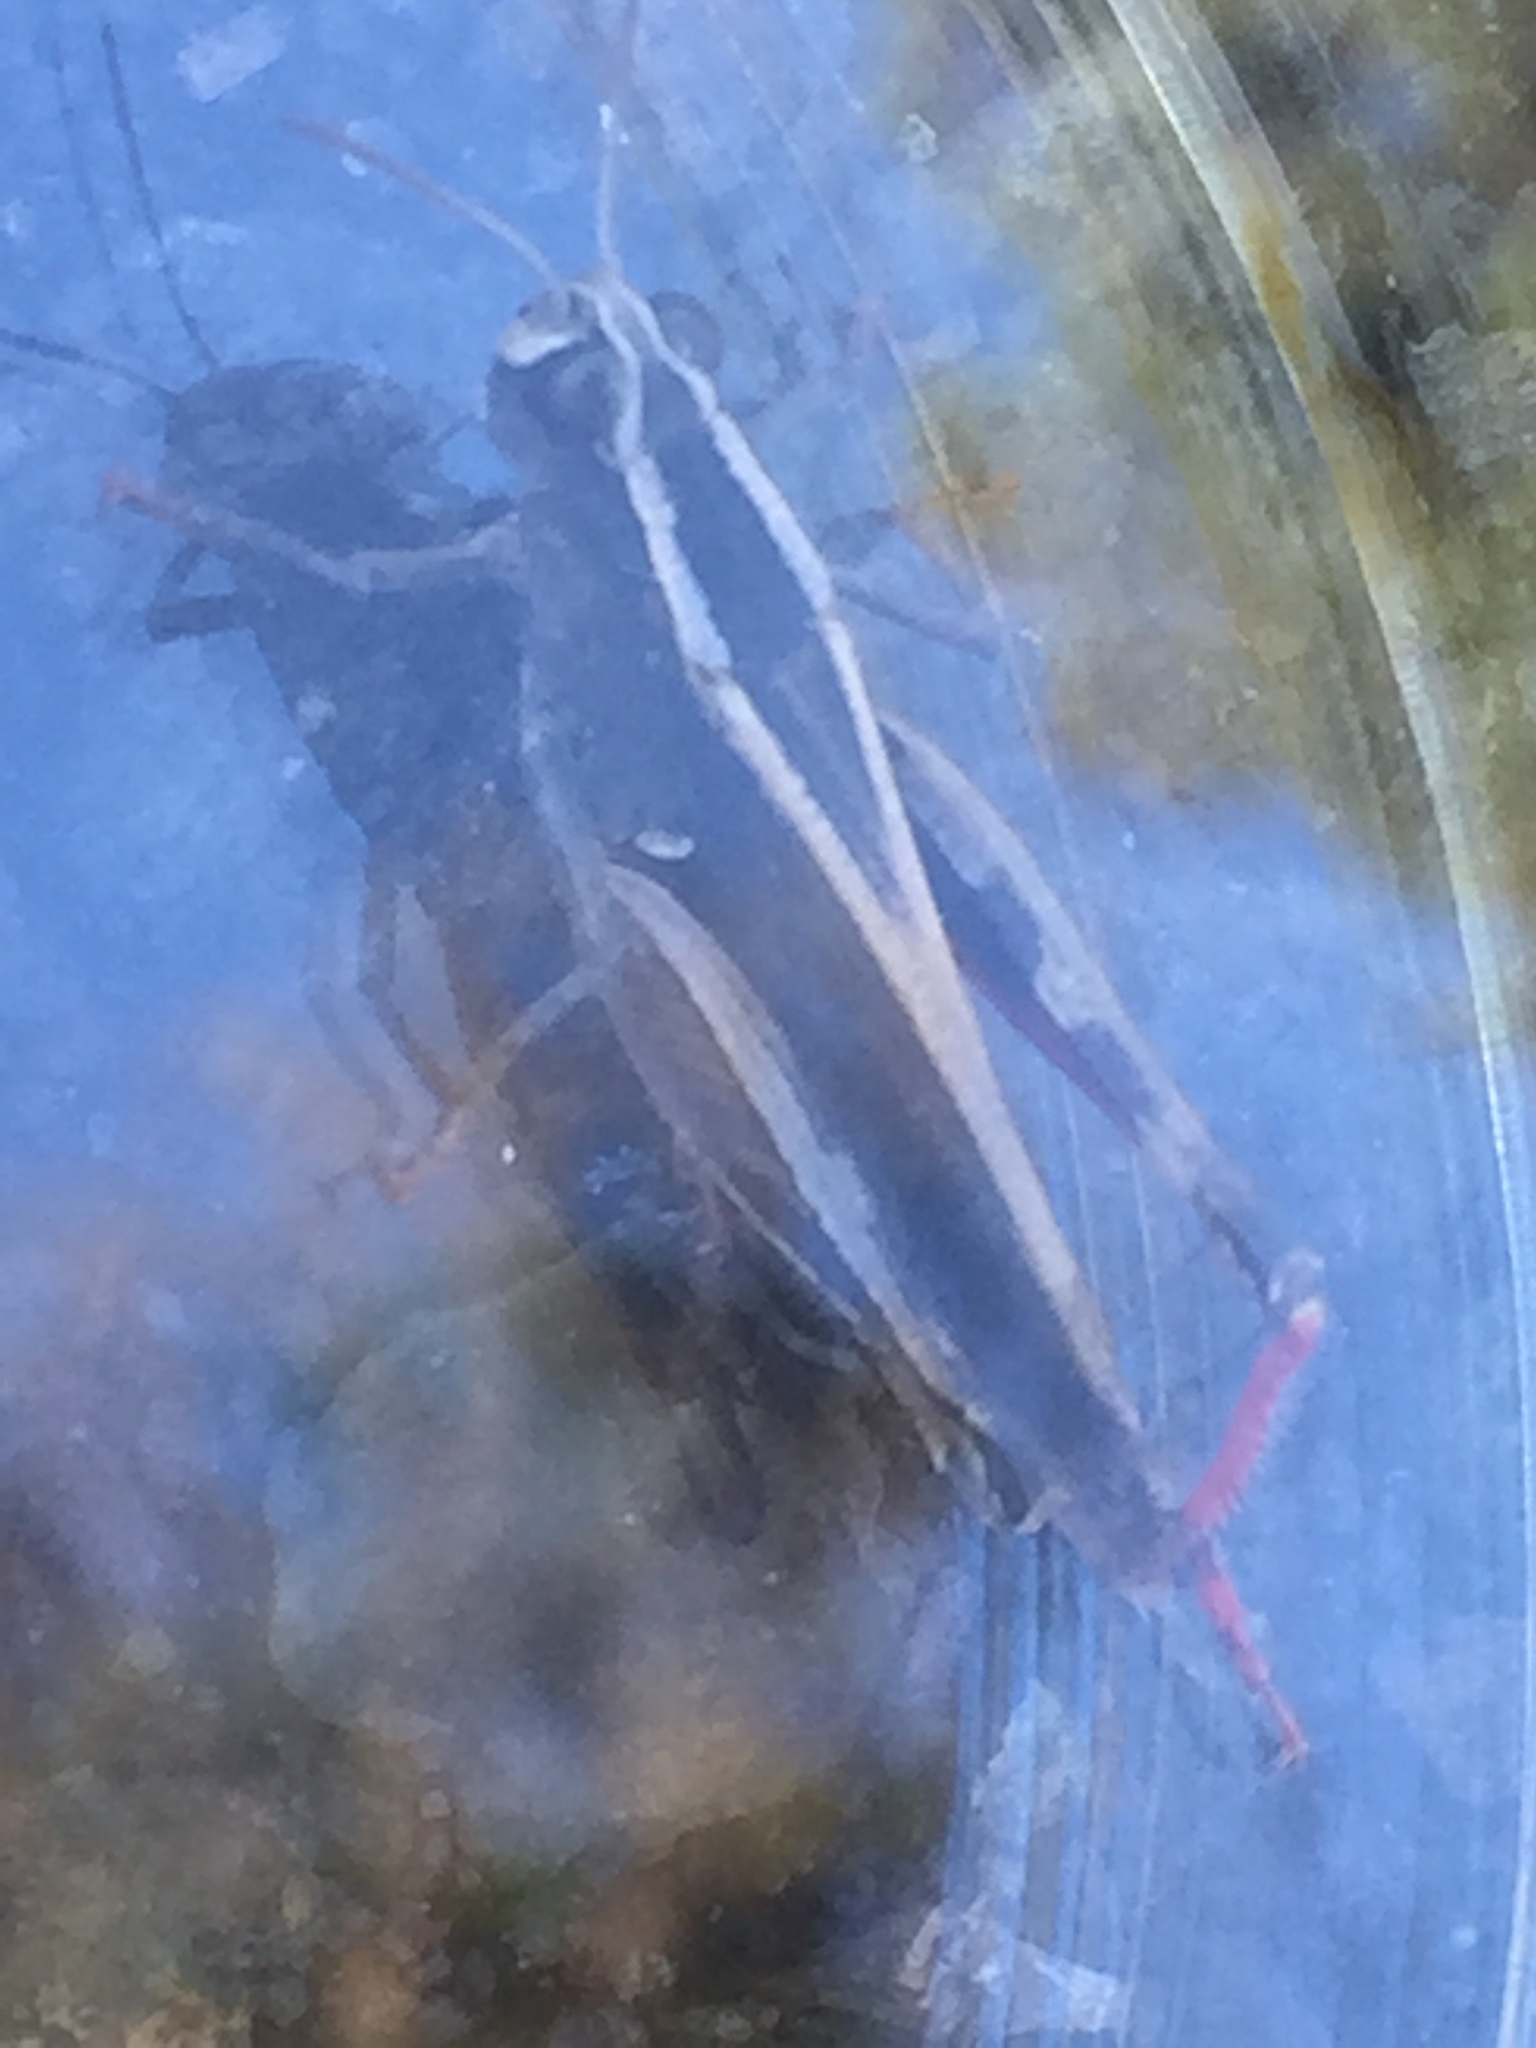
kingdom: Animalia
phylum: Arthropoda
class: Insecta
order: Orthoptera
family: Acrididae
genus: Calliptamus
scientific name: Calliptamus plebeius
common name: Canarian pincer grasshopper
